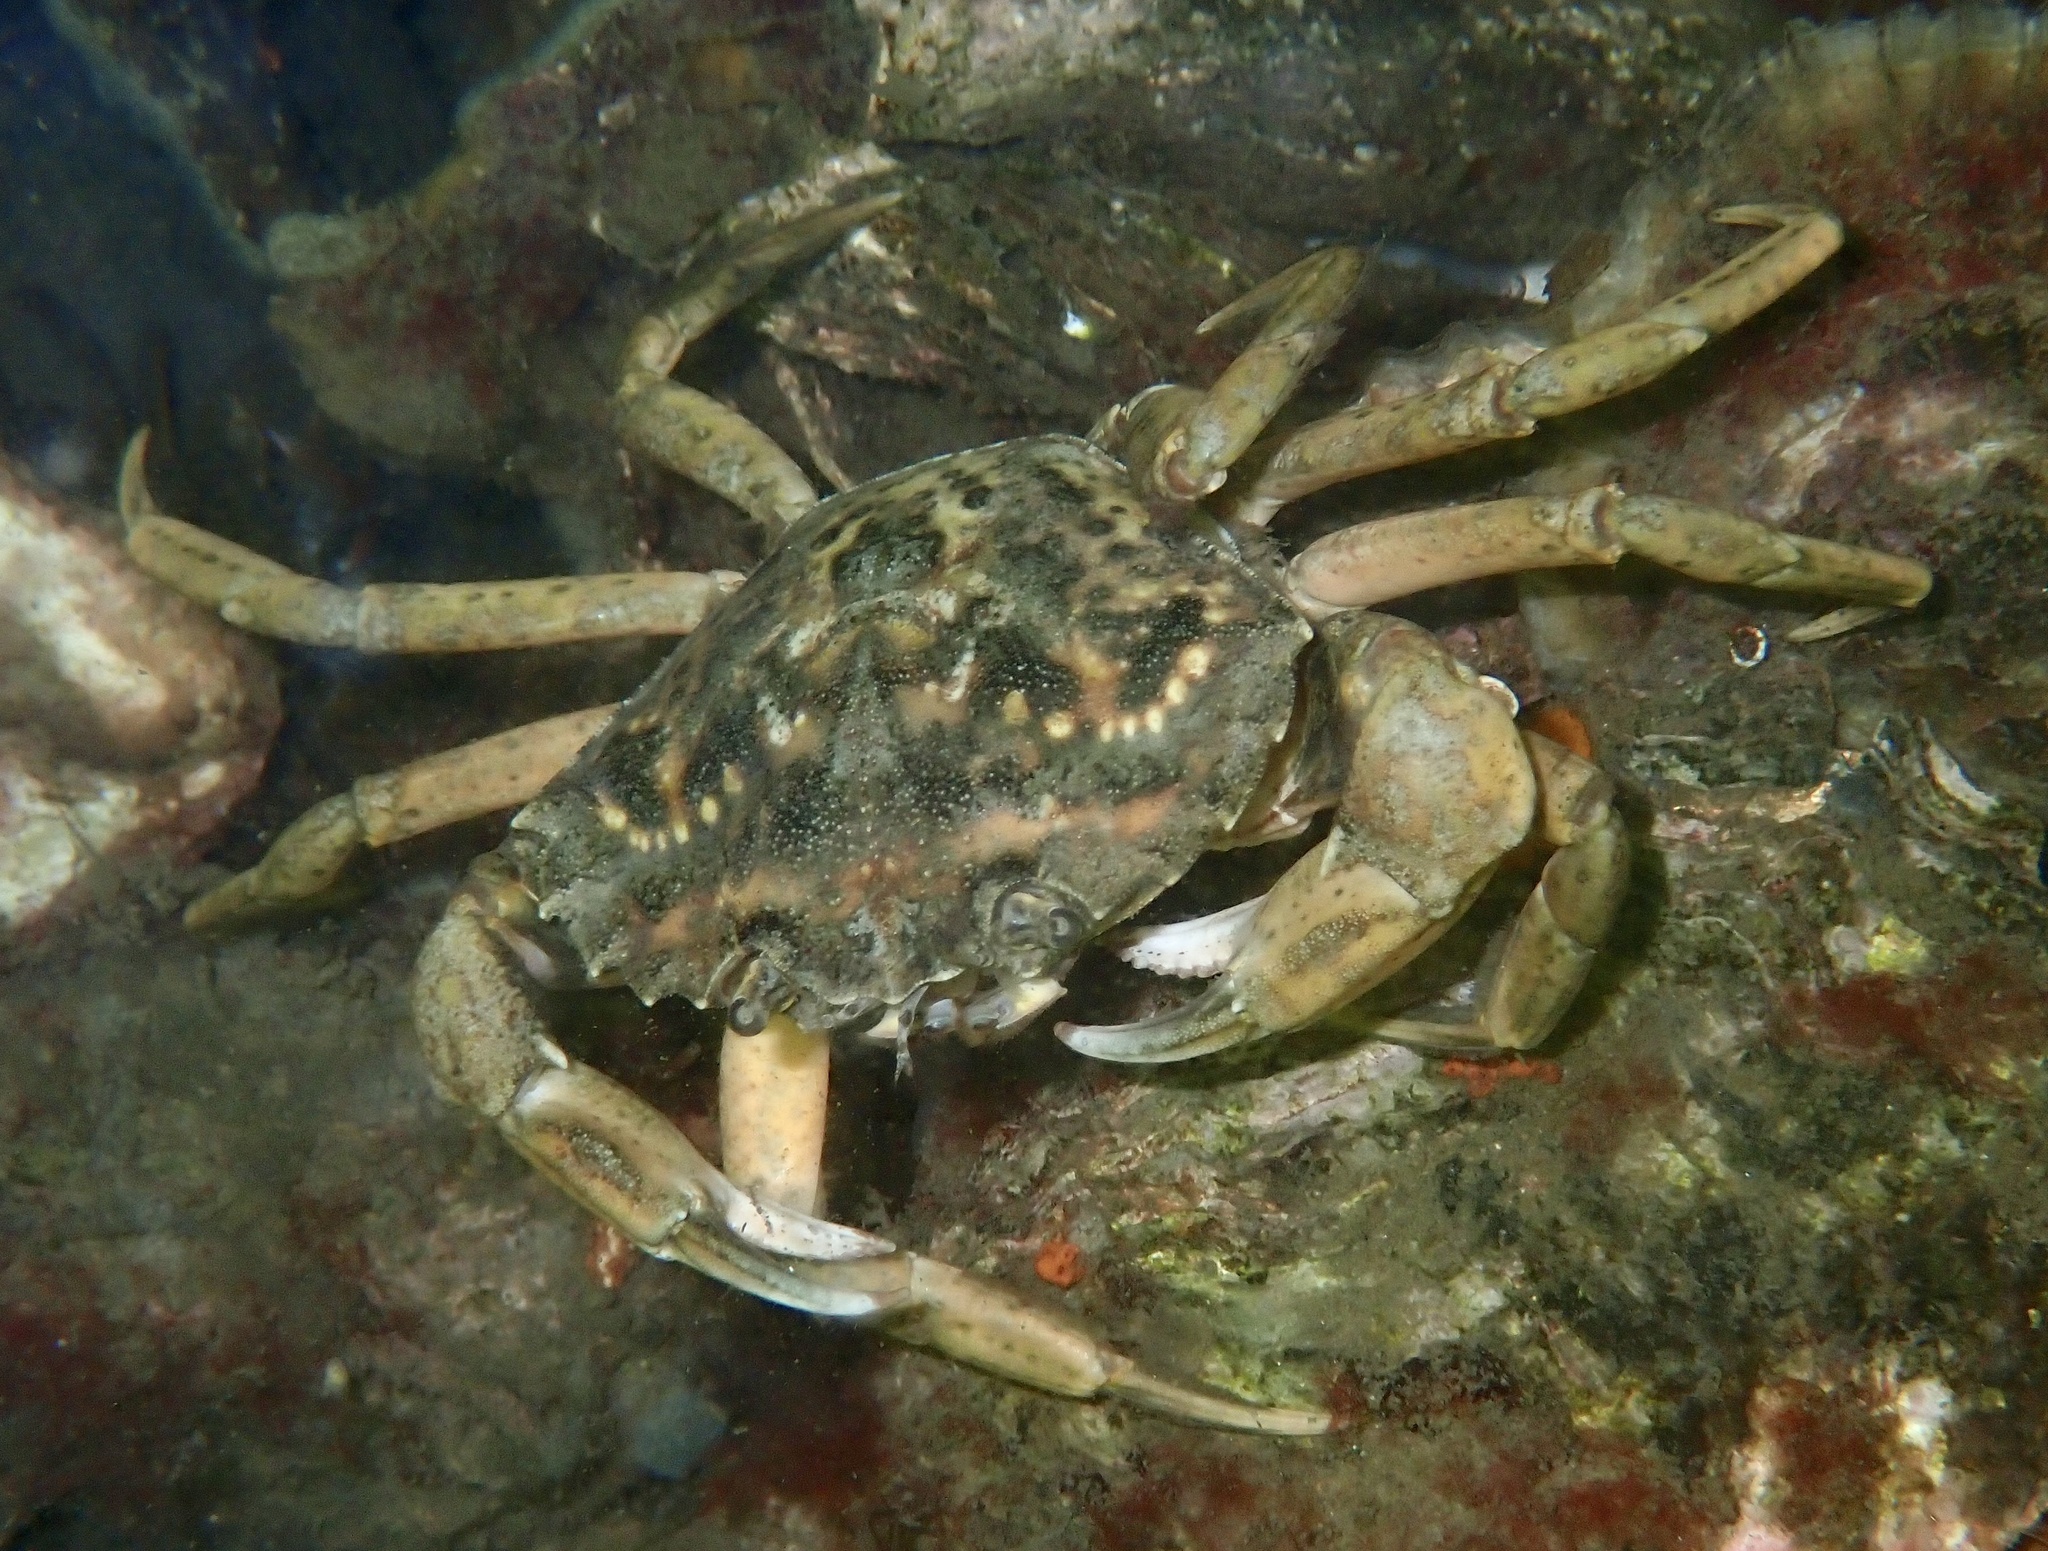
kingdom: Animalia
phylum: Arthropoda
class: Malacostraca
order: Decapoda
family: Carcinidae
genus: Carcinus
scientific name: Carcinus maenas
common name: European green crab
